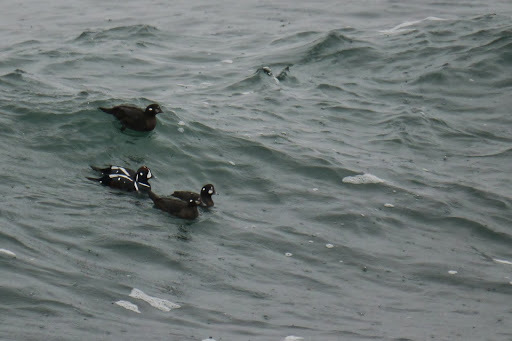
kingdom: Animalia
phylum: Chordata
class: Aves
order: Anseriformes
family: Anatidae
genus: Histrionicus
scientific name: Histrionicus histrionicus
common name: Harlequin duck
